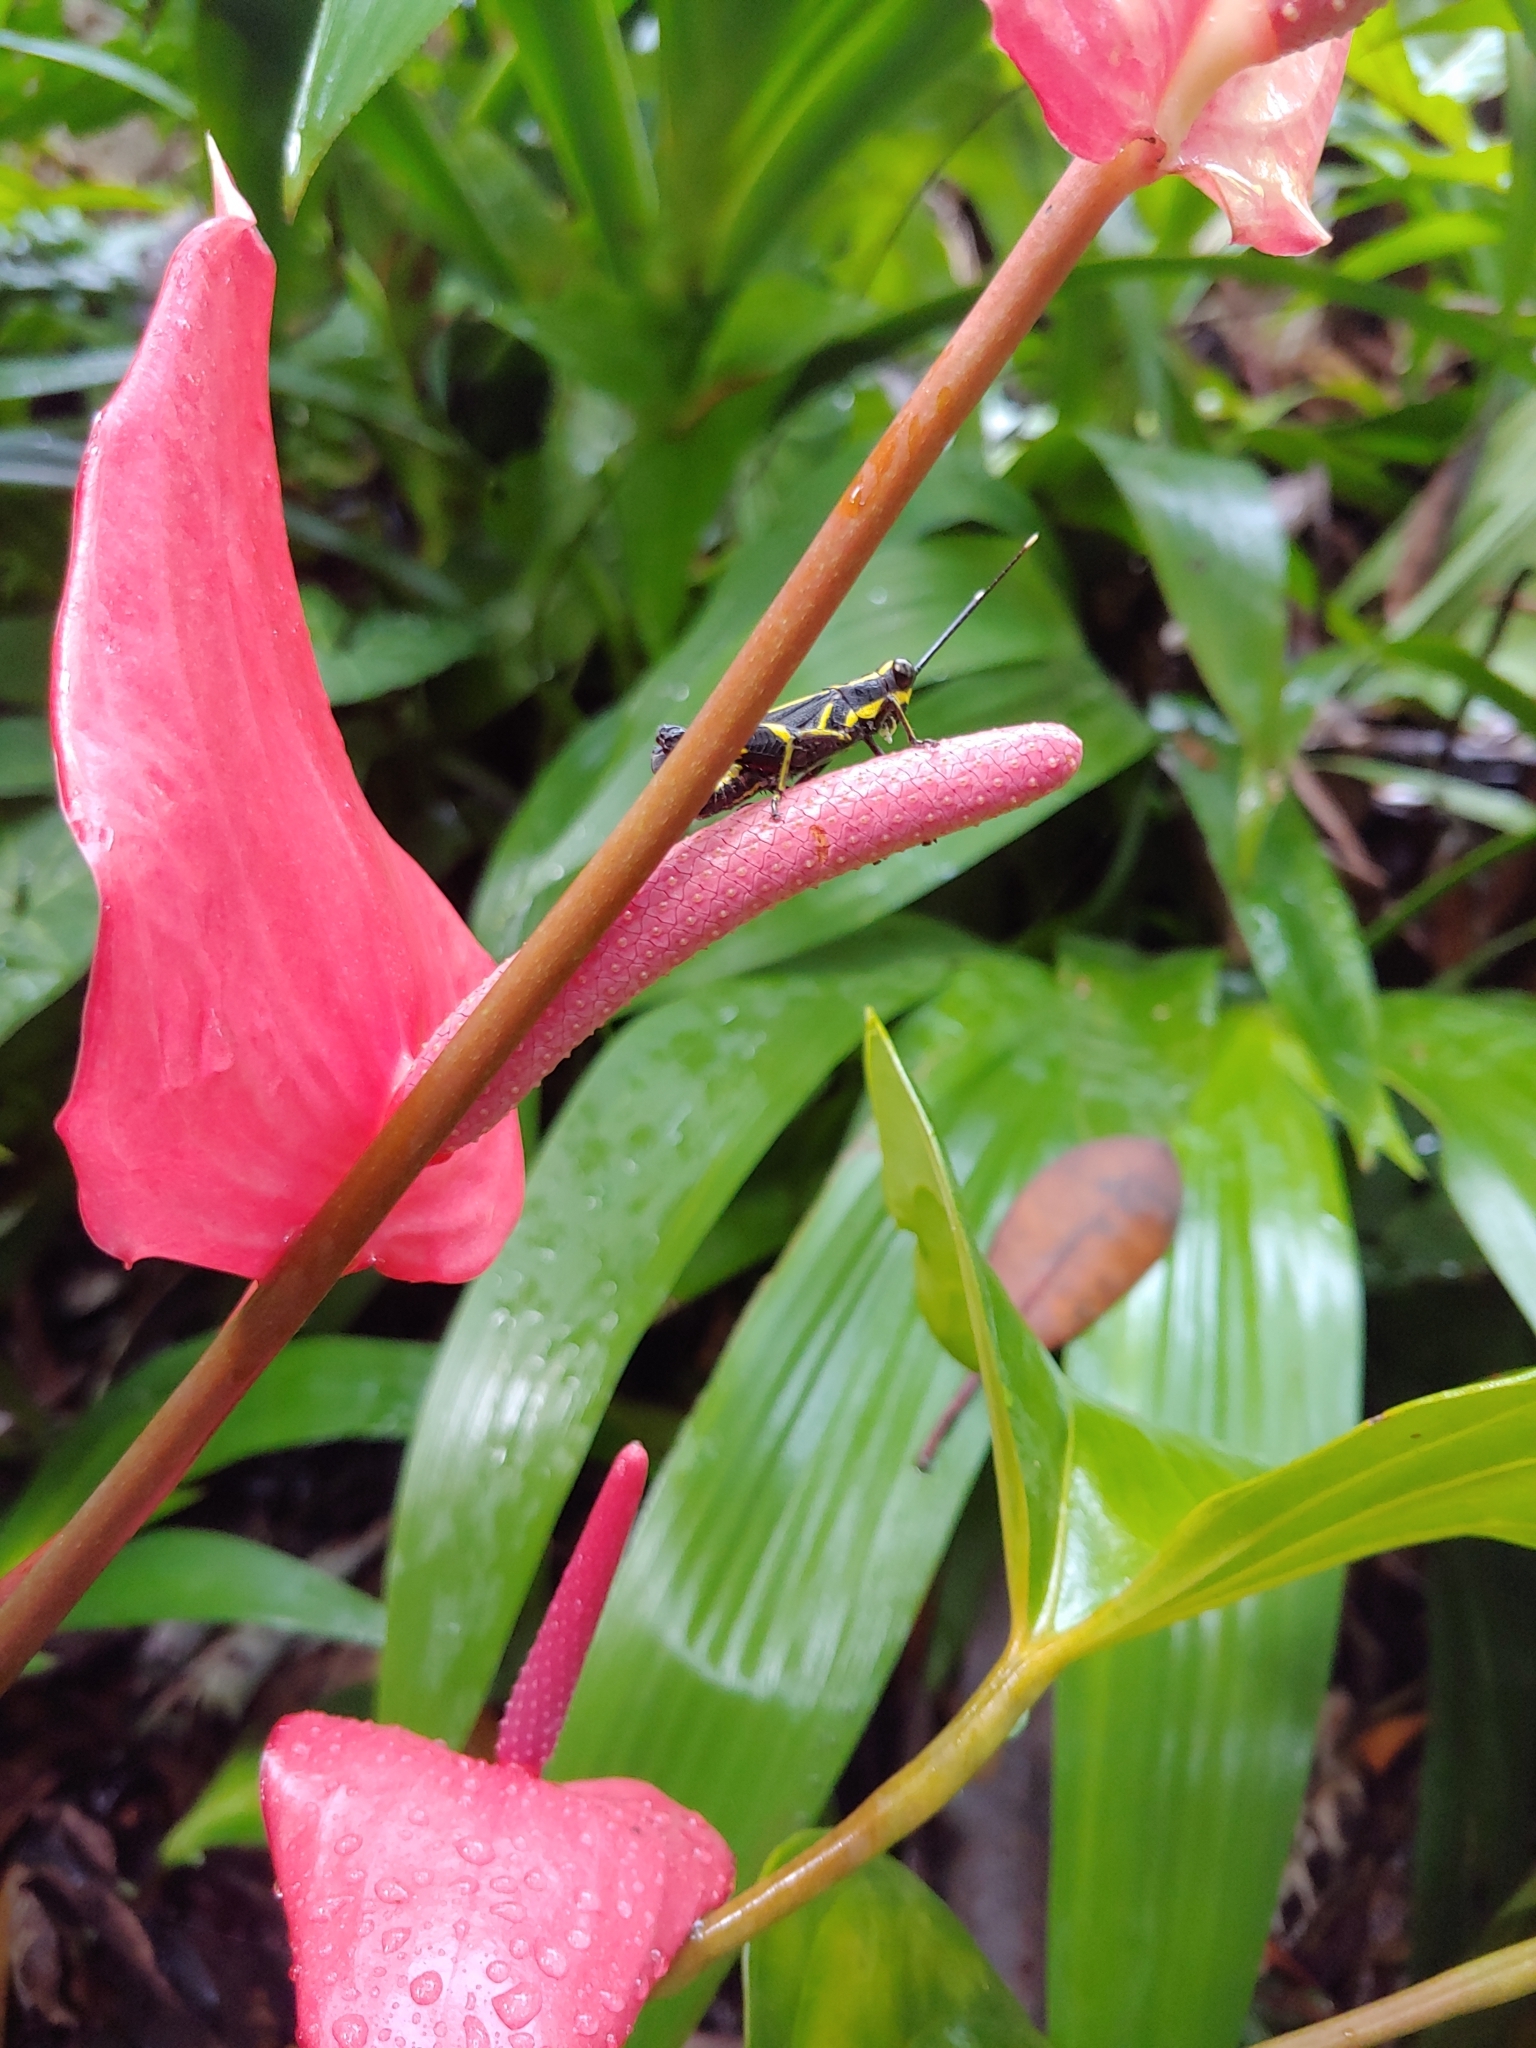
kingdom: Animalia
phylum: Arthropoda
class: Insecta
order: Orthoptera
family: Acrididae
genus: Traulia
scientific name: Traulia azureipennis
